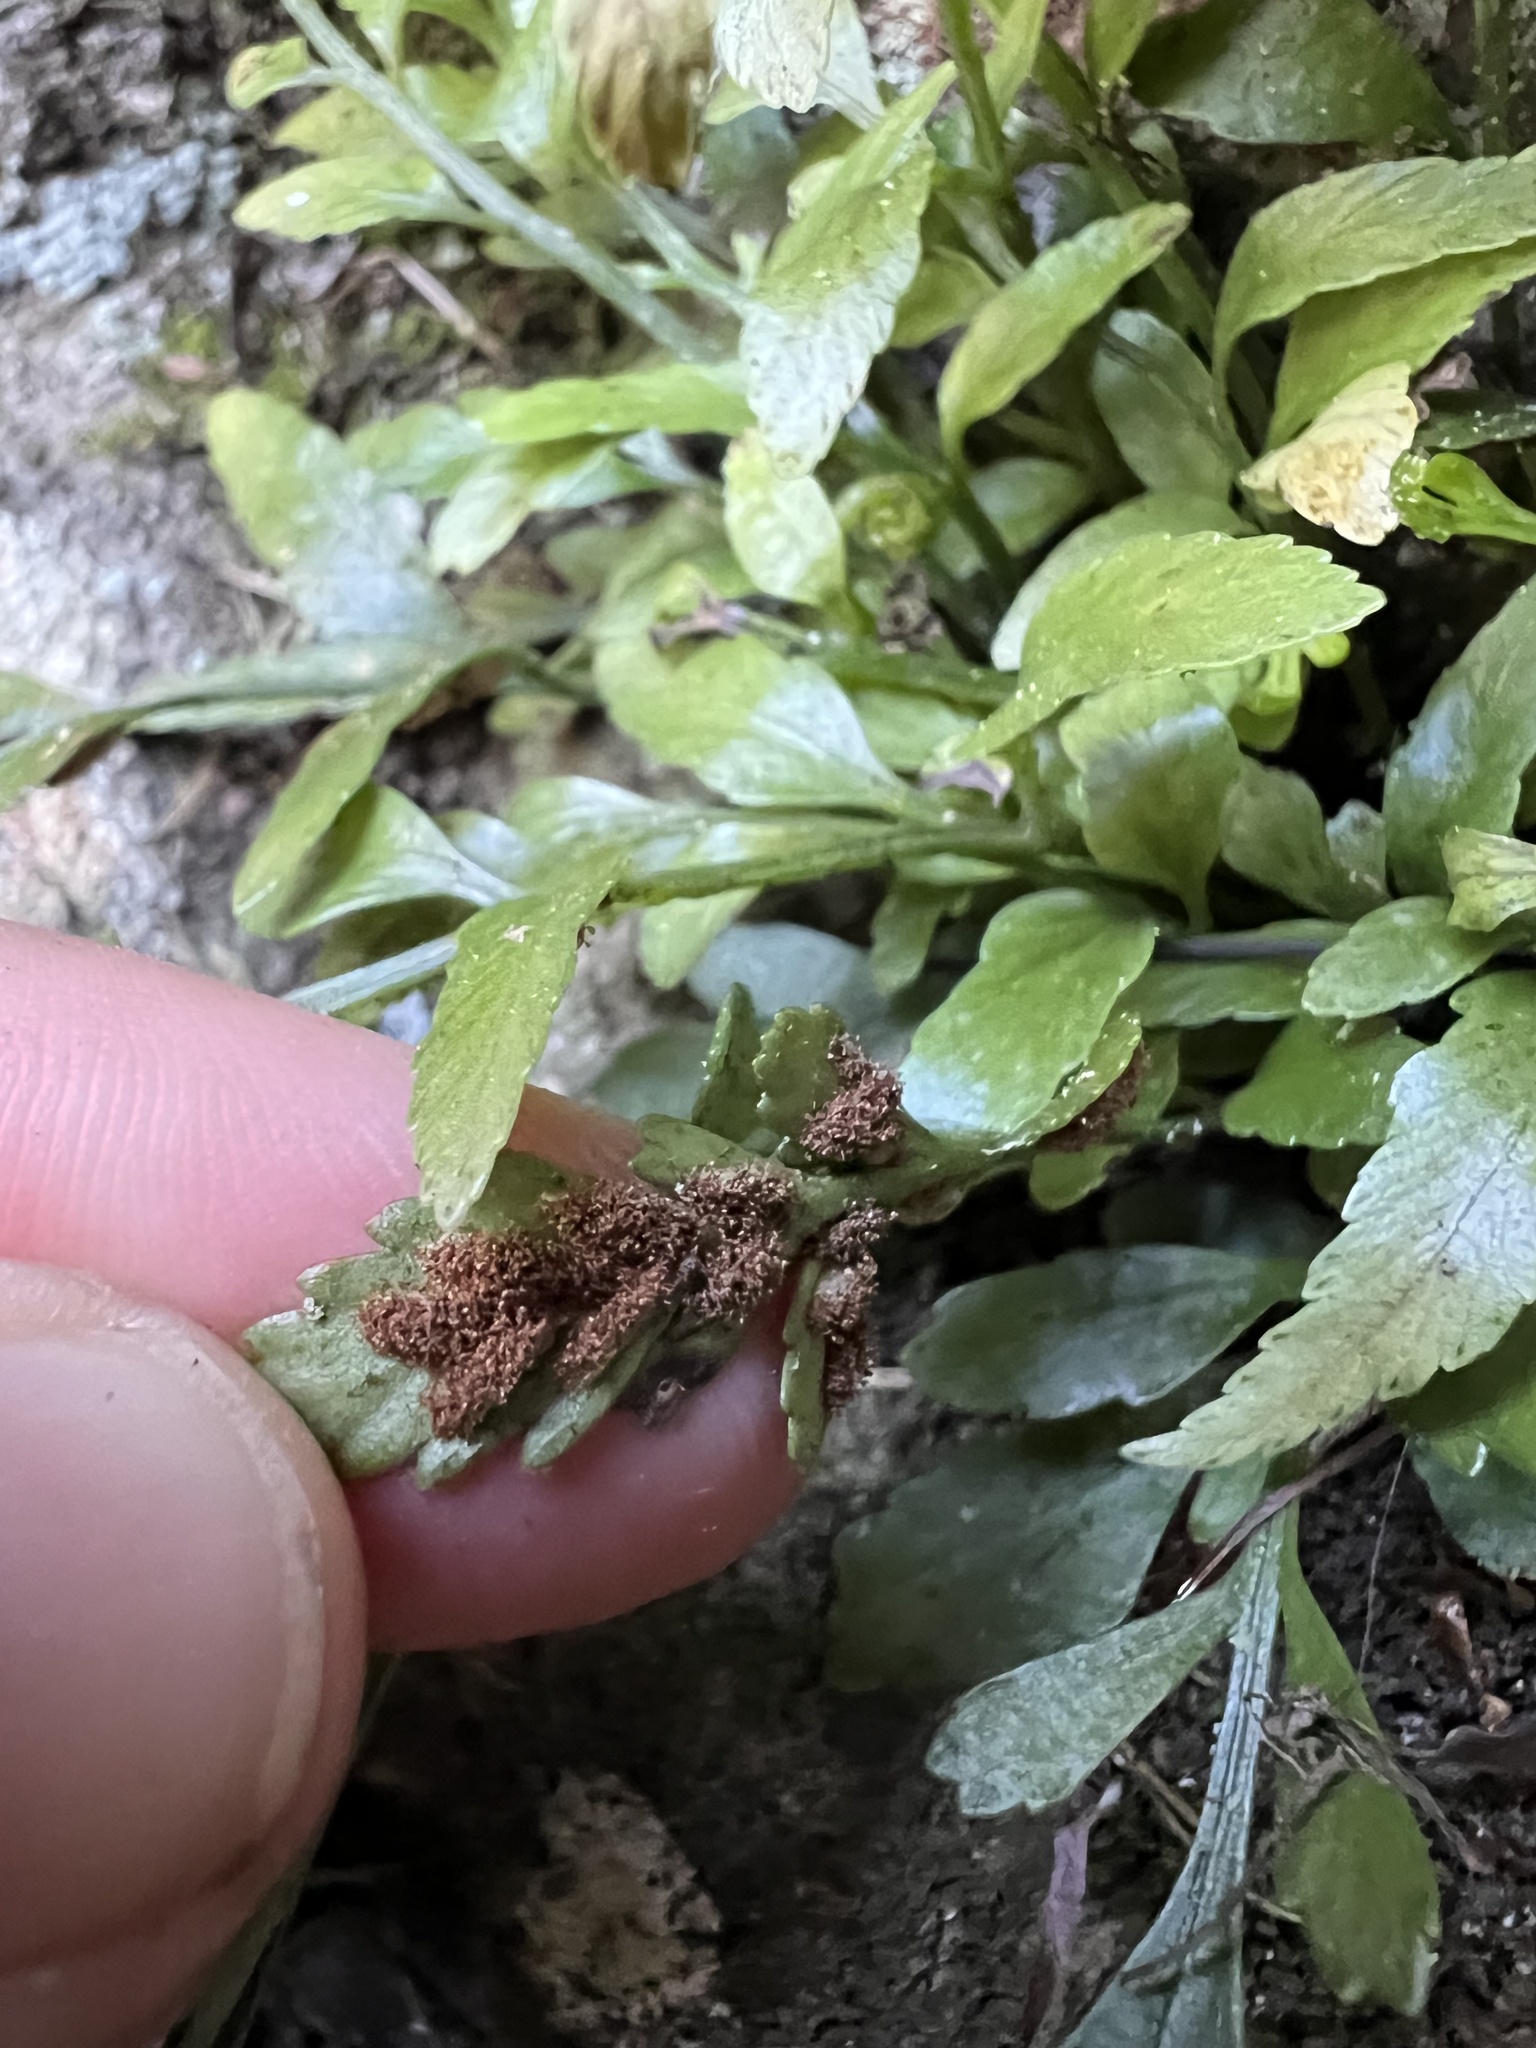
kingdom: Plantae
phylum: Tracheophyta
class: Polypodiopsida
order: Polypodiales
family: Aspleniaceae
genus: Asplenium
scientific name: Asplenium lyallii
